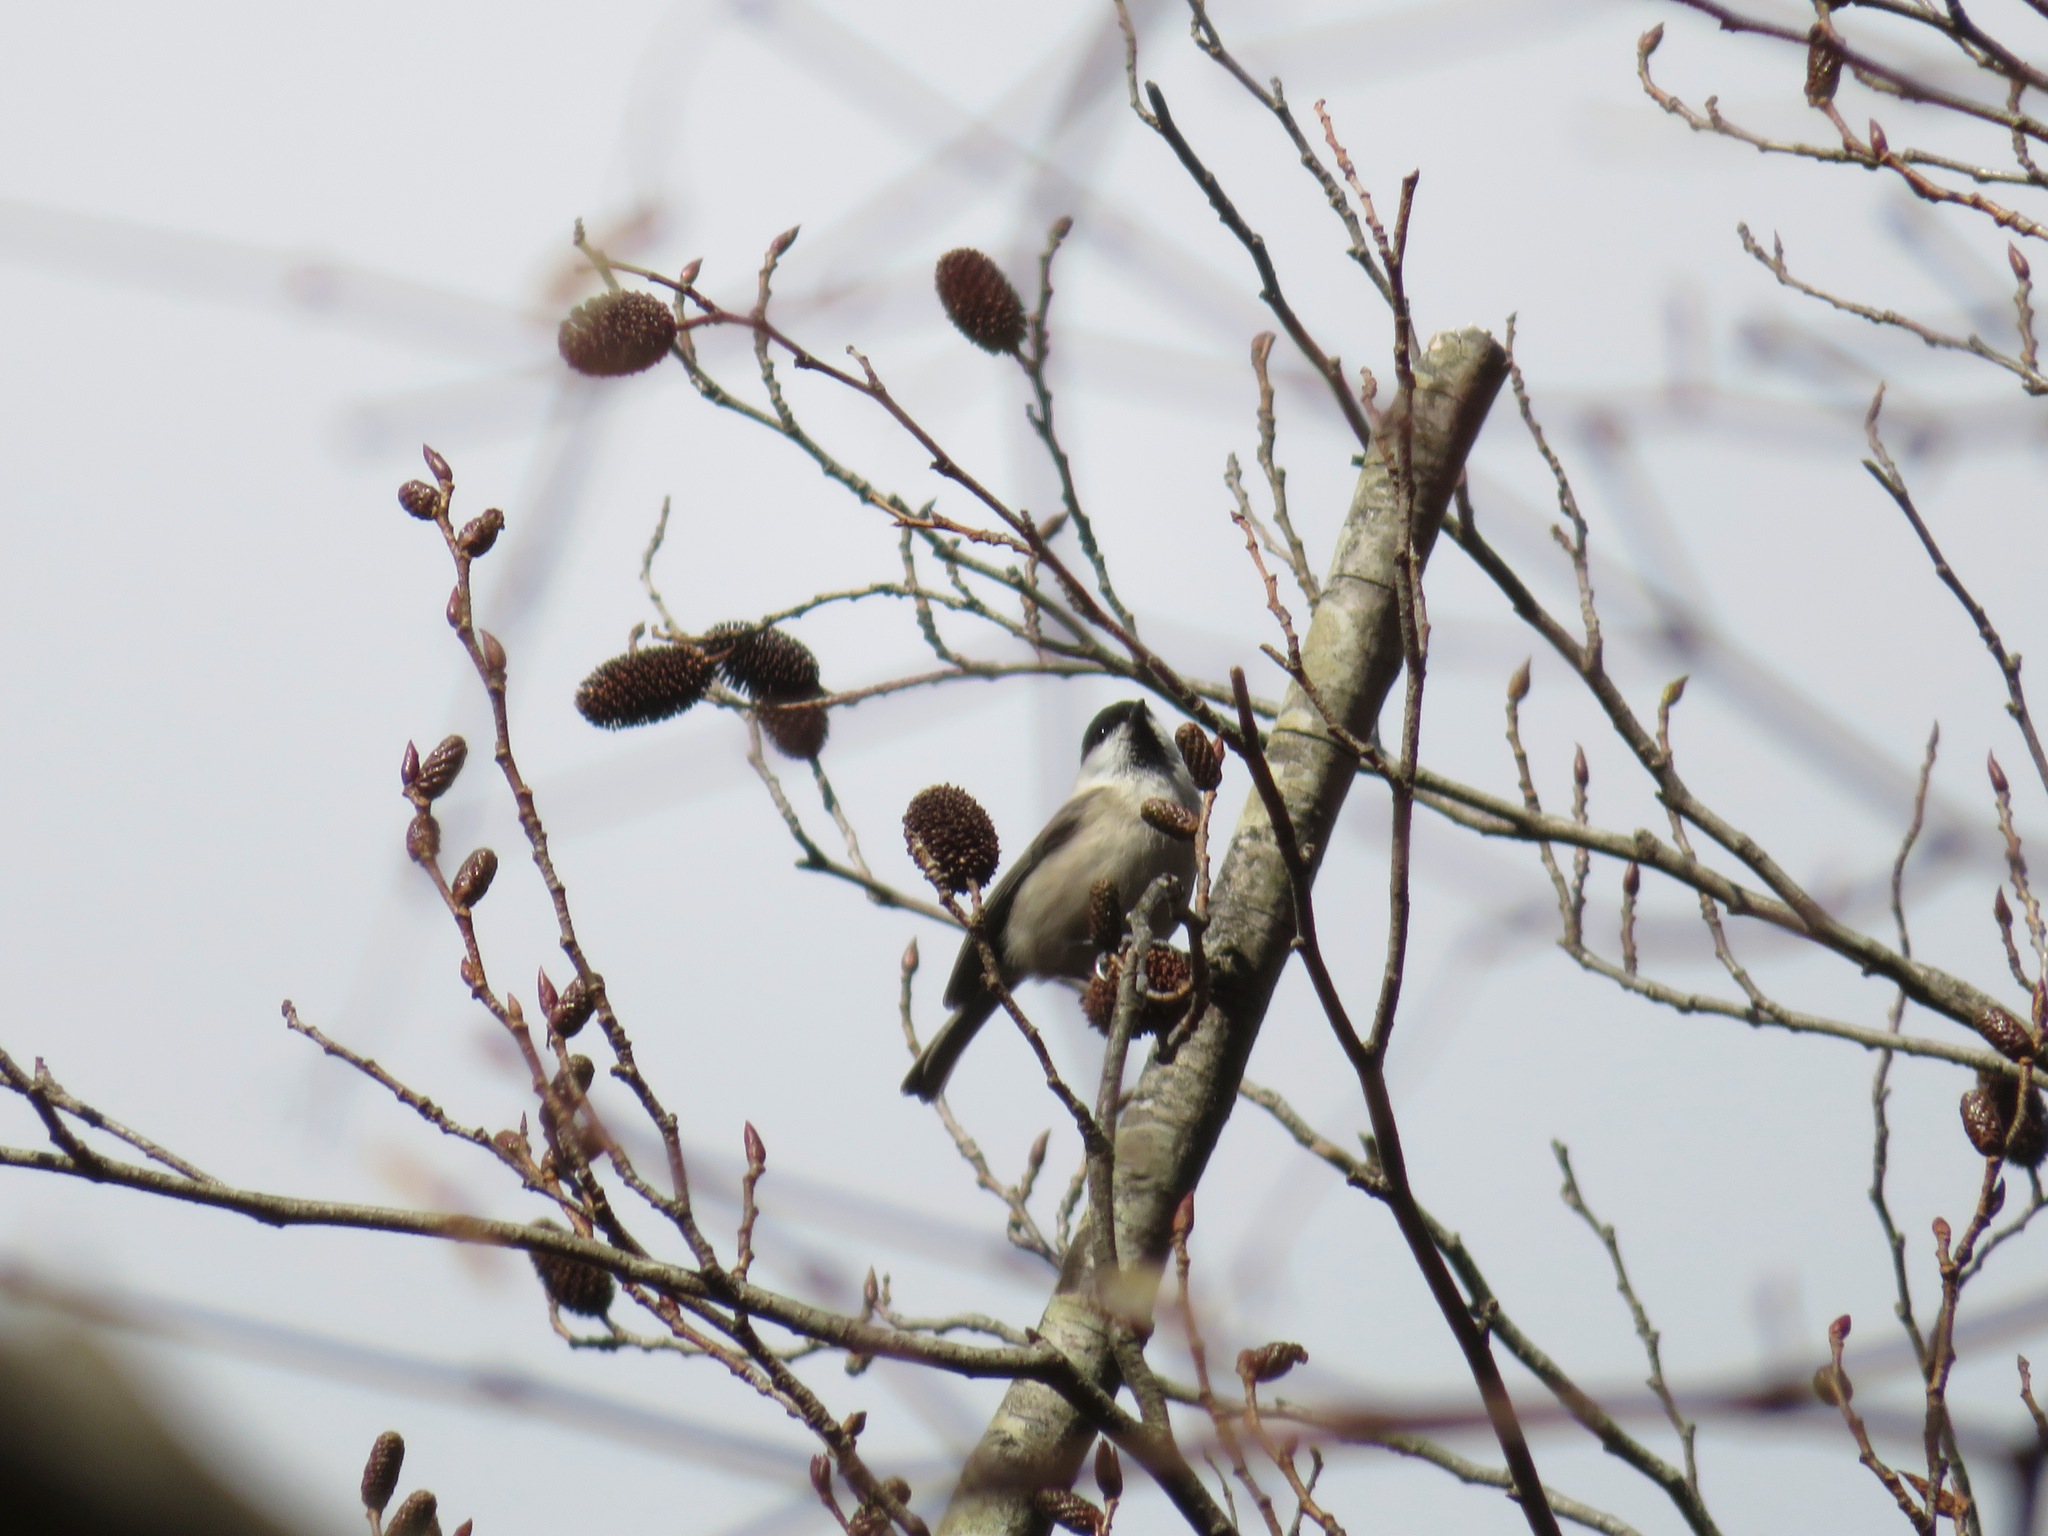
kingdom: Animalia
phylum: Chordata
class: Aves
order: Passeriformes
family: Paridae
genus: Poecile
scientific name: Poecile montanus
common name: Willow tit
